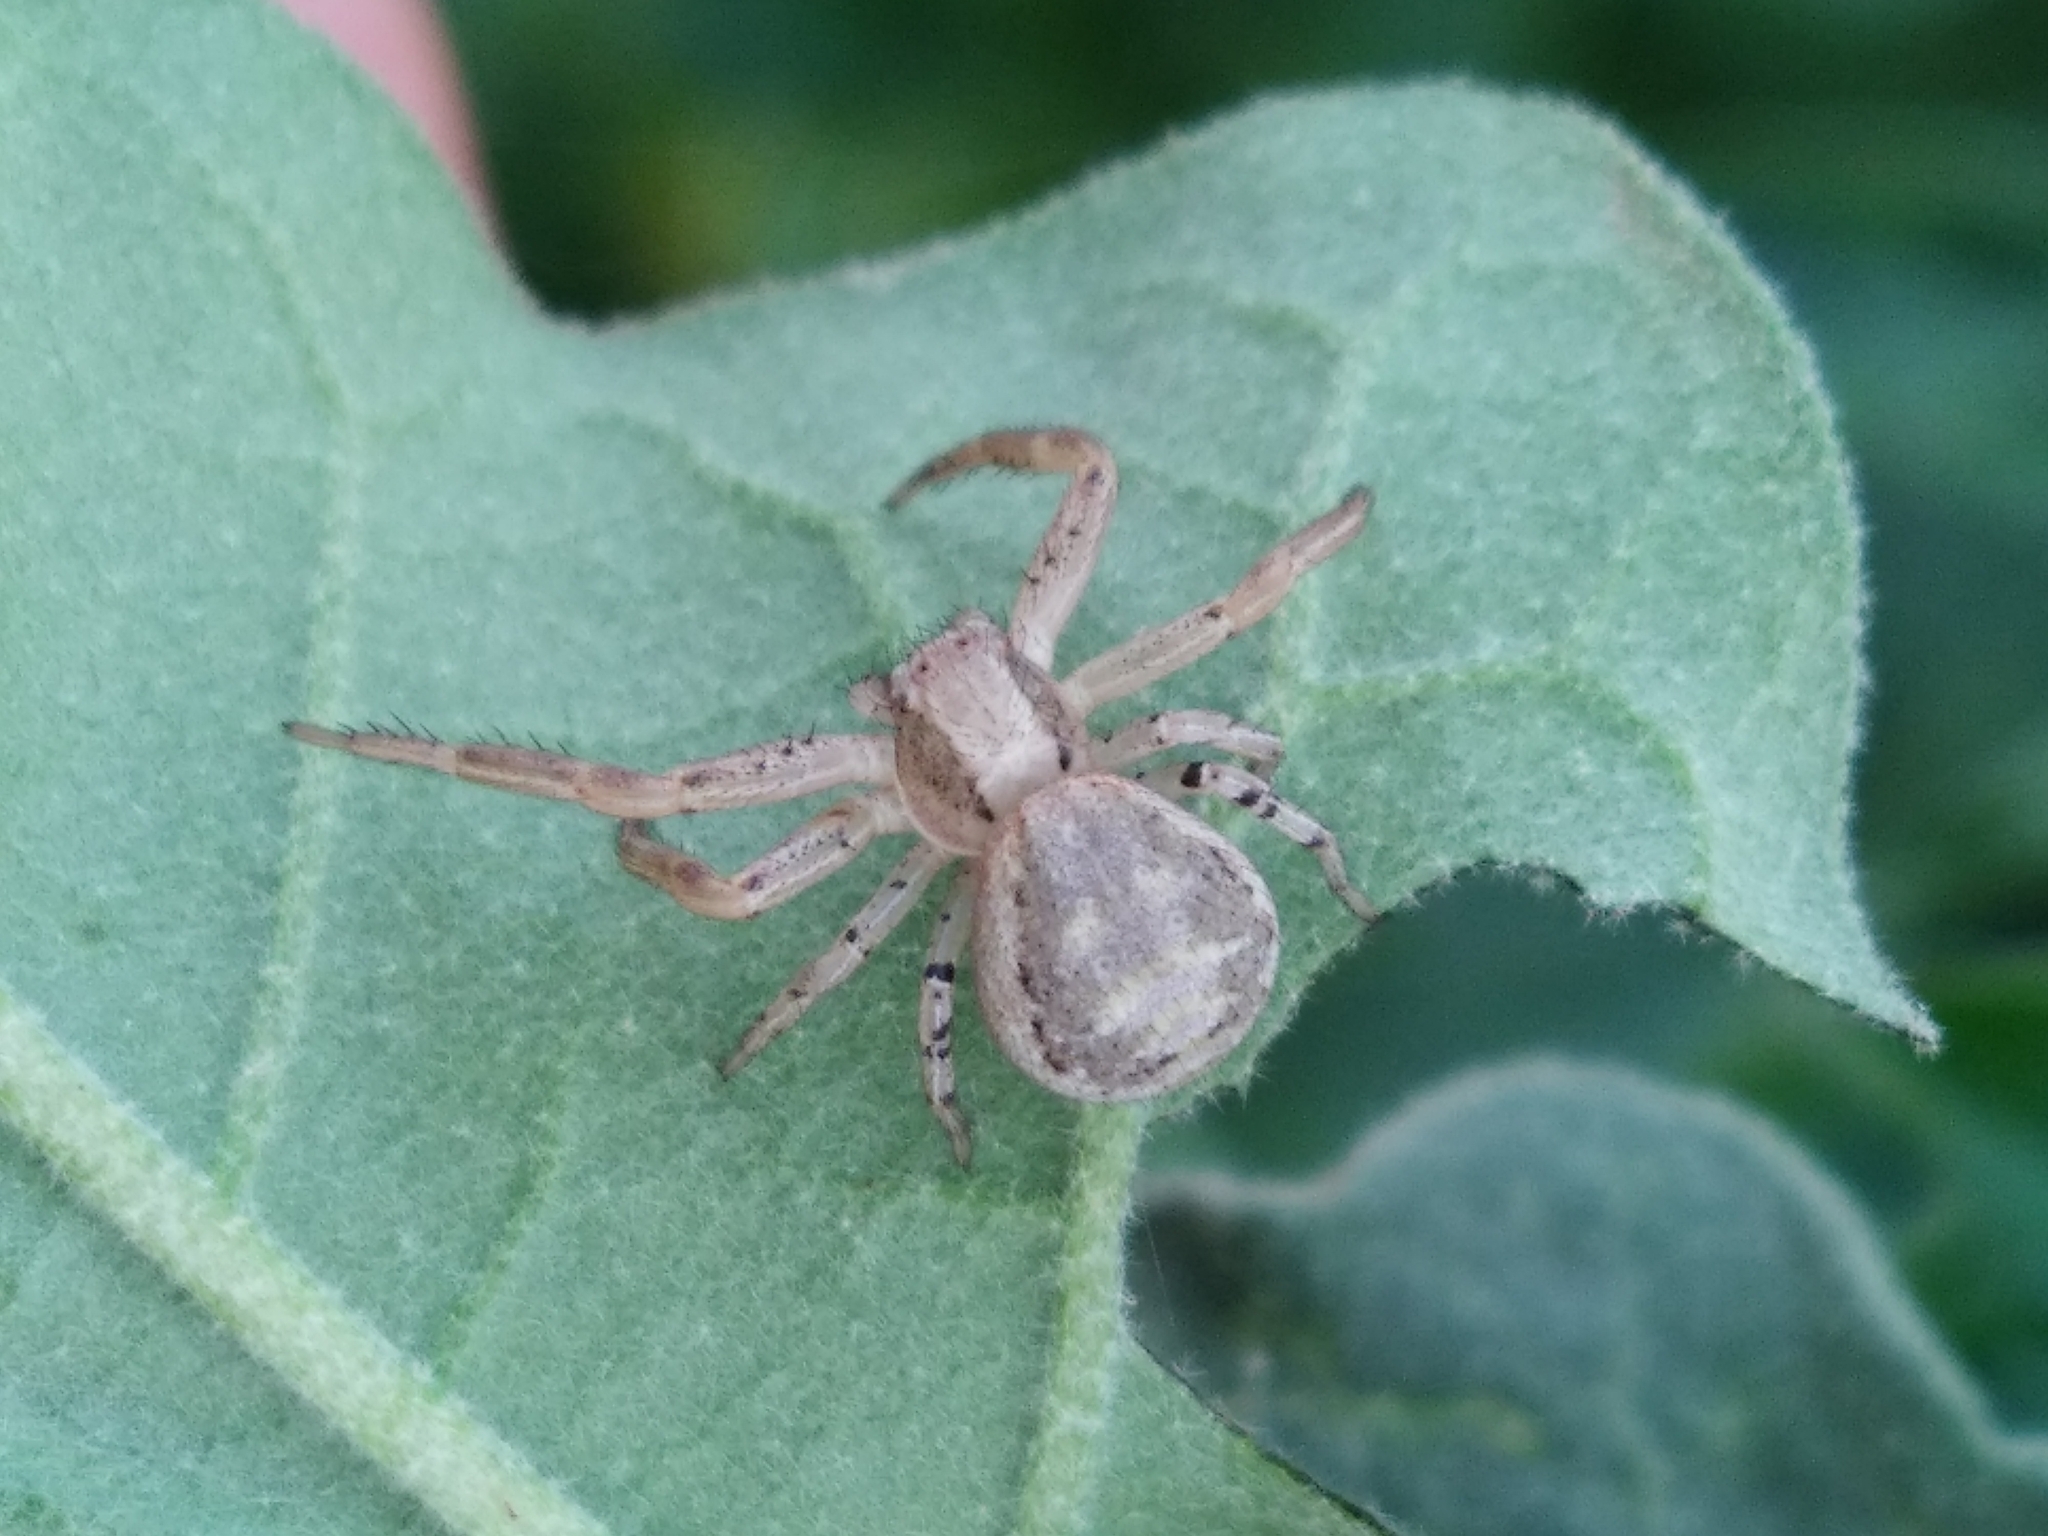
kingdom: Animalia
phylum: Arthropoda
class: Arachnida
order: Araneae
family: Thomisidae
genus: Xysticus
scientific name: Xysticus
